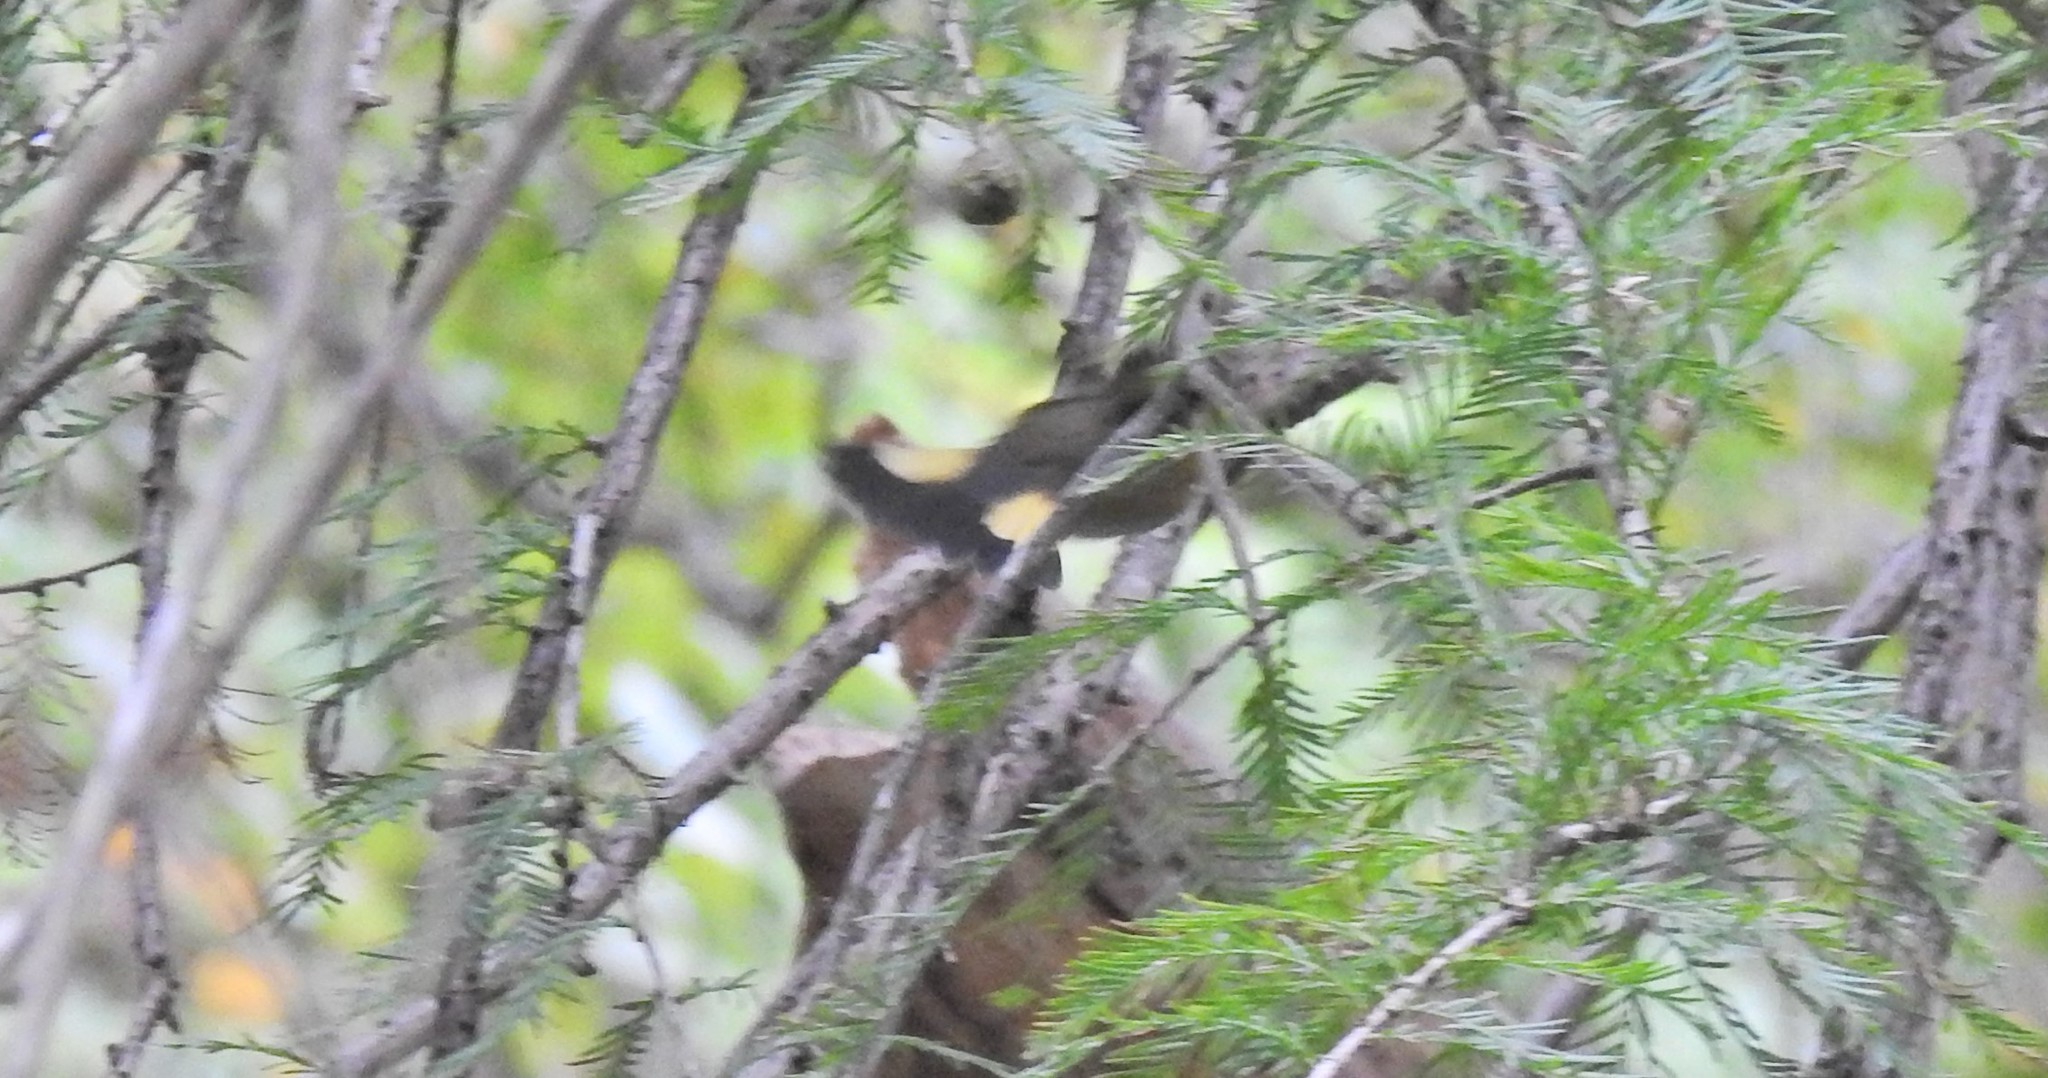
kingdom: Animalia
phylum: Chordata
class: Aves
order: Passeriformes
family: Parulidae
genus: Setophaga
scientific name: Setophaga ruticilla
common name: American redstart
